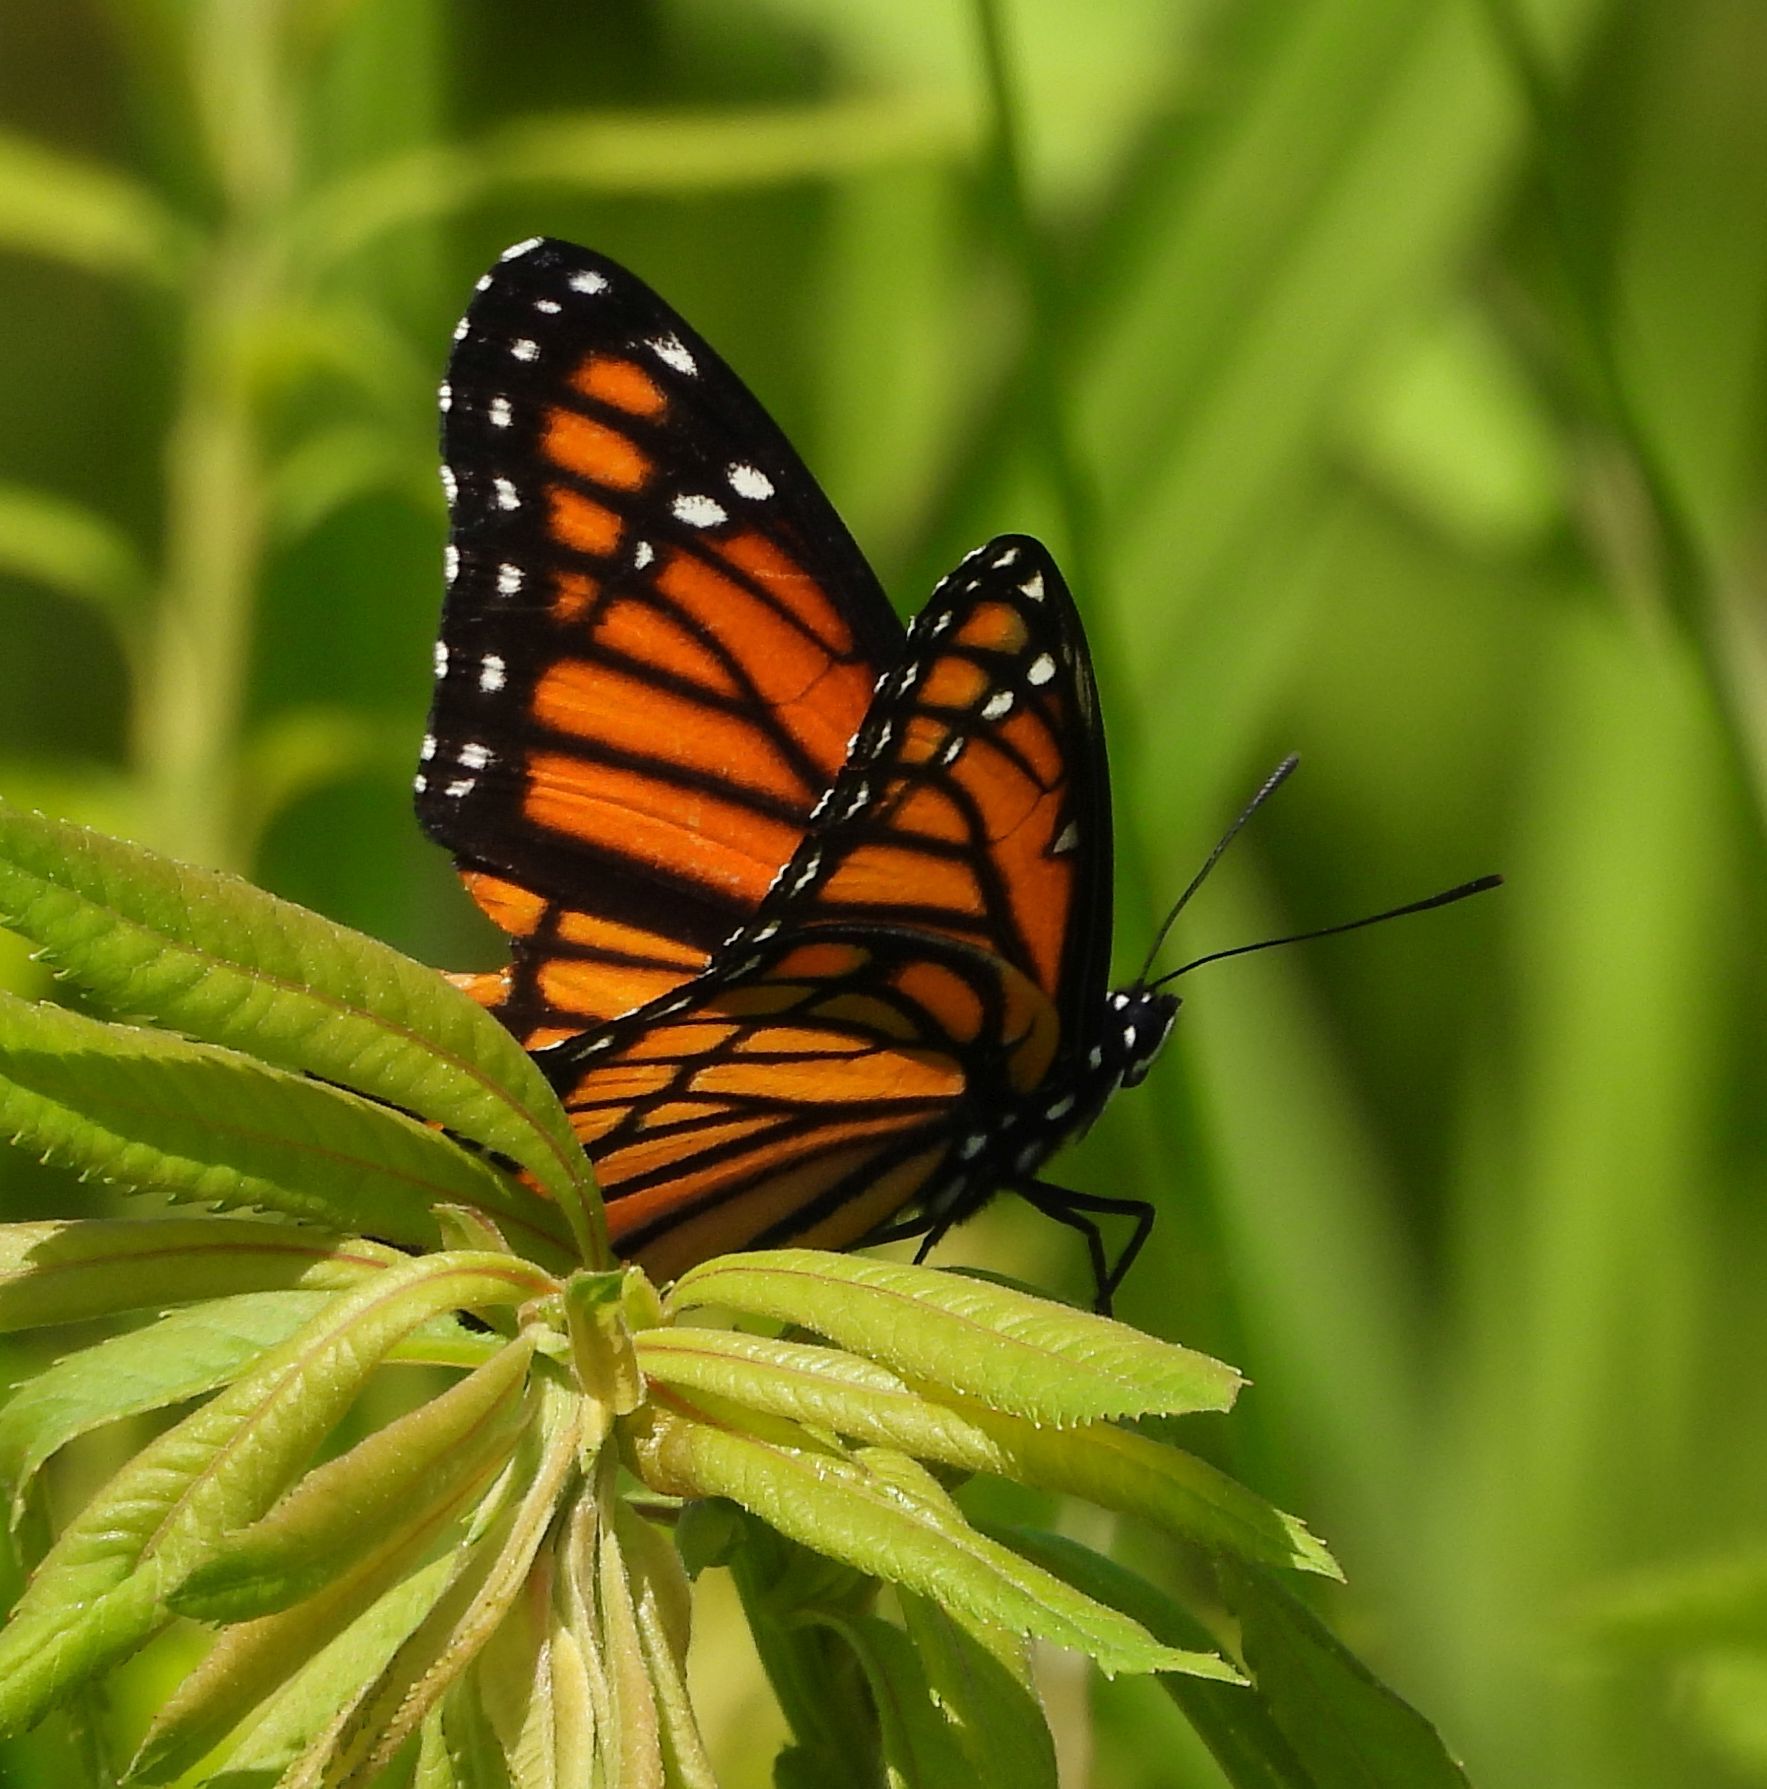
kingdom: Animalia
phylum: Arthropoda
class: Insecta
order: Lepidoptera
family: Nymphalidae
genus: Limenitis
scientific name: Limenitis archippus
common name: Viceroy
